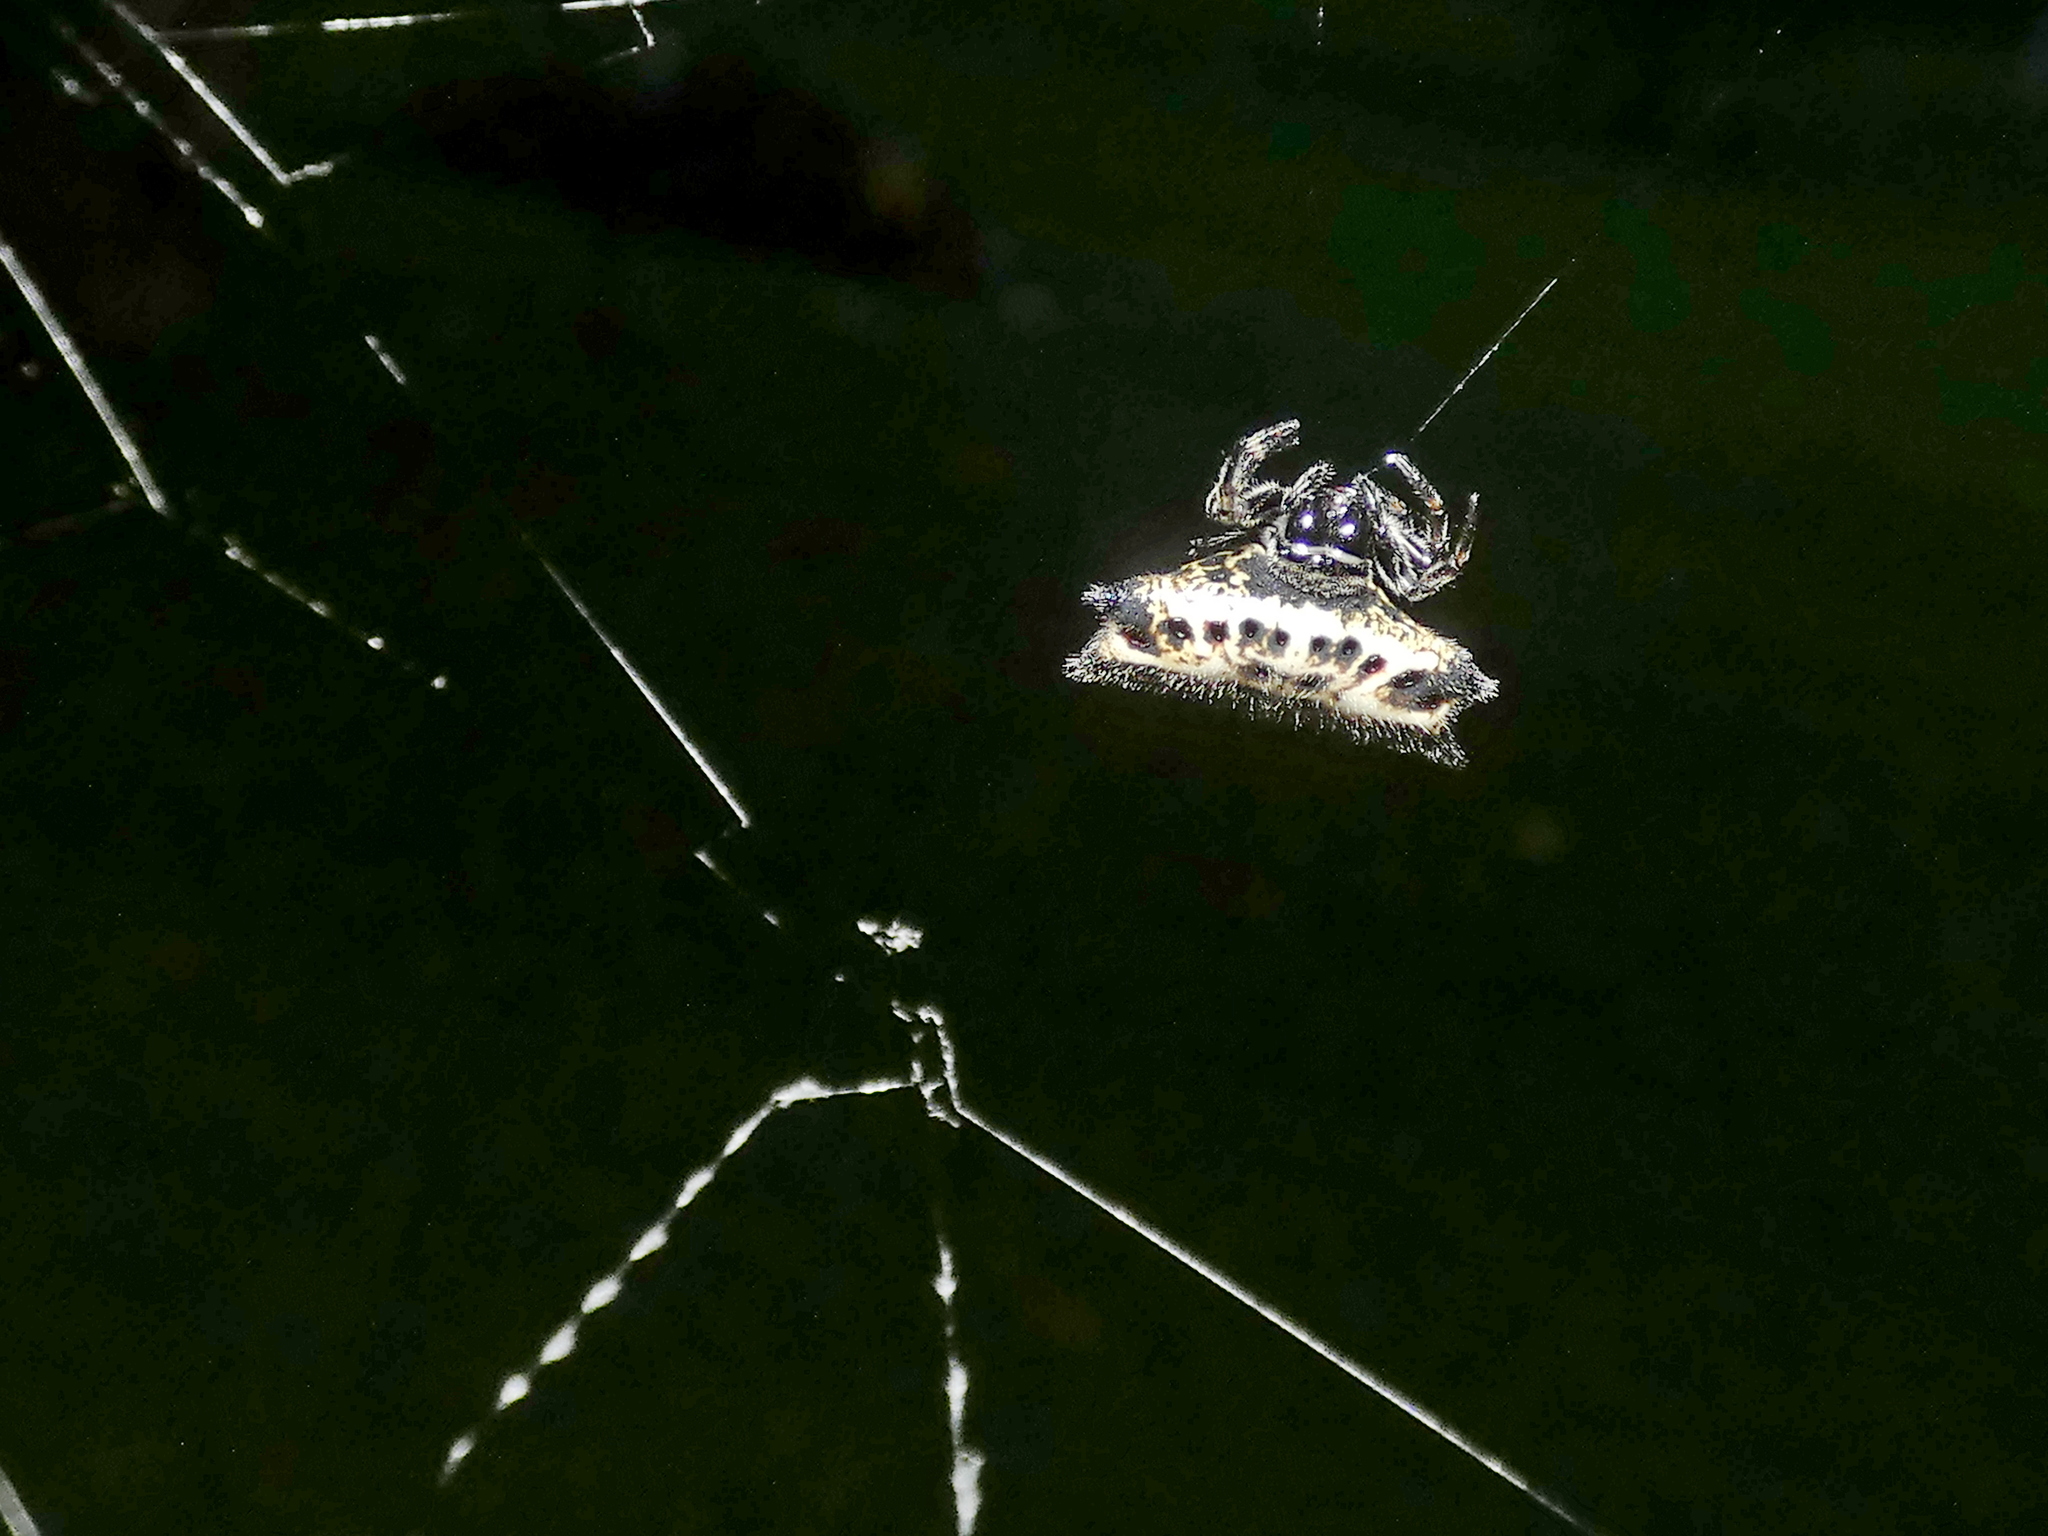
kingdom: Animalia
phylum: Arthropoda
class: Arachnida
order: Araneae
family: Araneidae
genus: Gasteracantha
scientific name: Gasteracantha cancriformis
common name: Orb weavers
